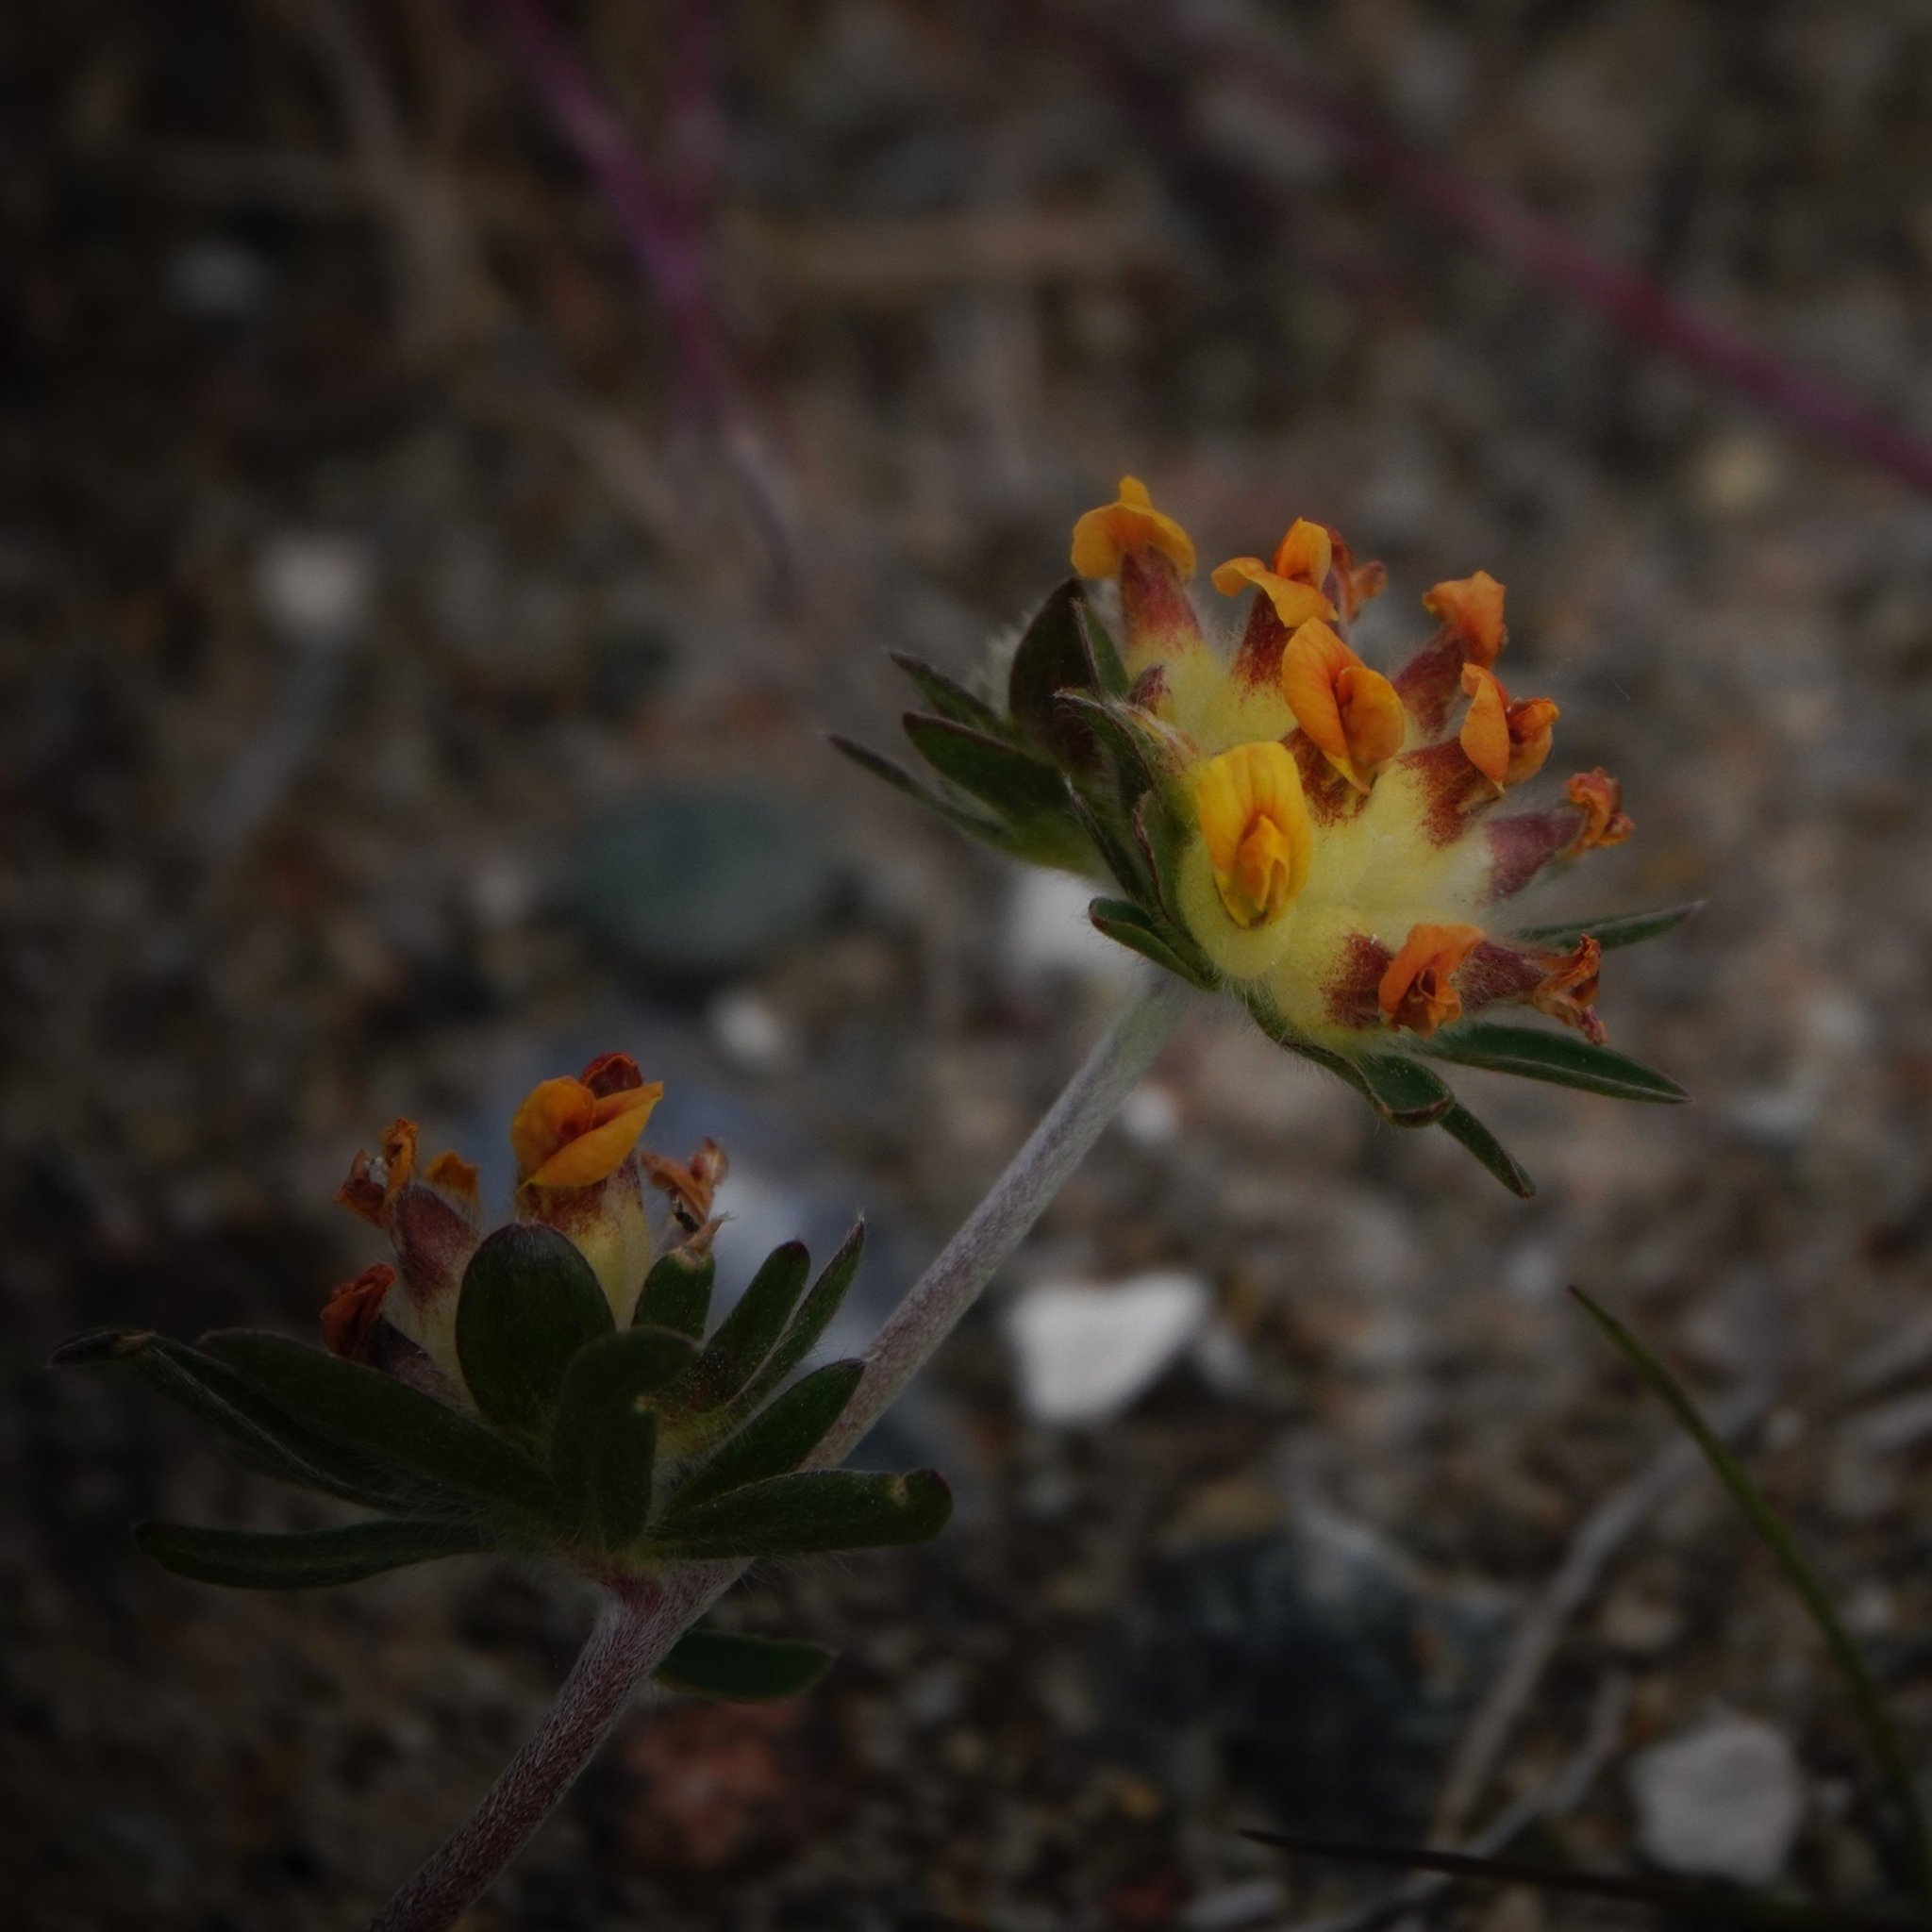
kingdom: Plantae
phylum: Tracheophyta
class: Magnoliopsida
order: Fabales
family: Fabaceae
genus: Anthyllis
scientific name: Anthyllis vulneraria
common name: Kidney vetch
